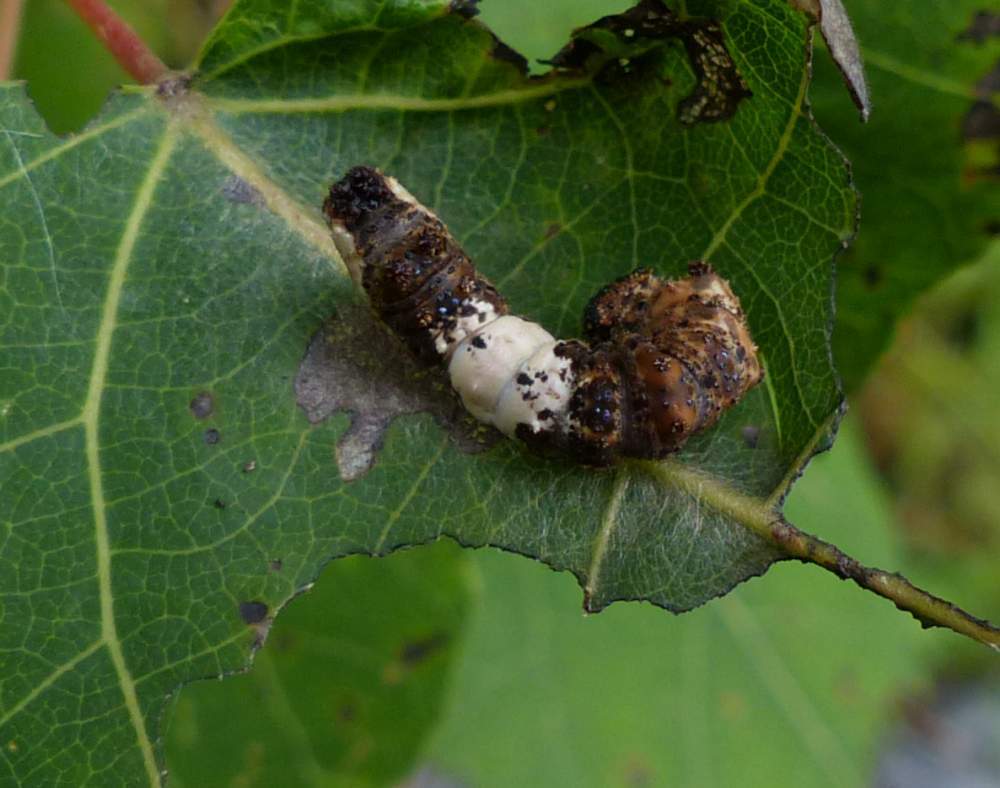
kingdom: Animalia
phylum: Arthropoda
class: Insecta
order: Lepidoptera
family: Nymphalidae
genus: Limenitis
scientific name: Limenitis
